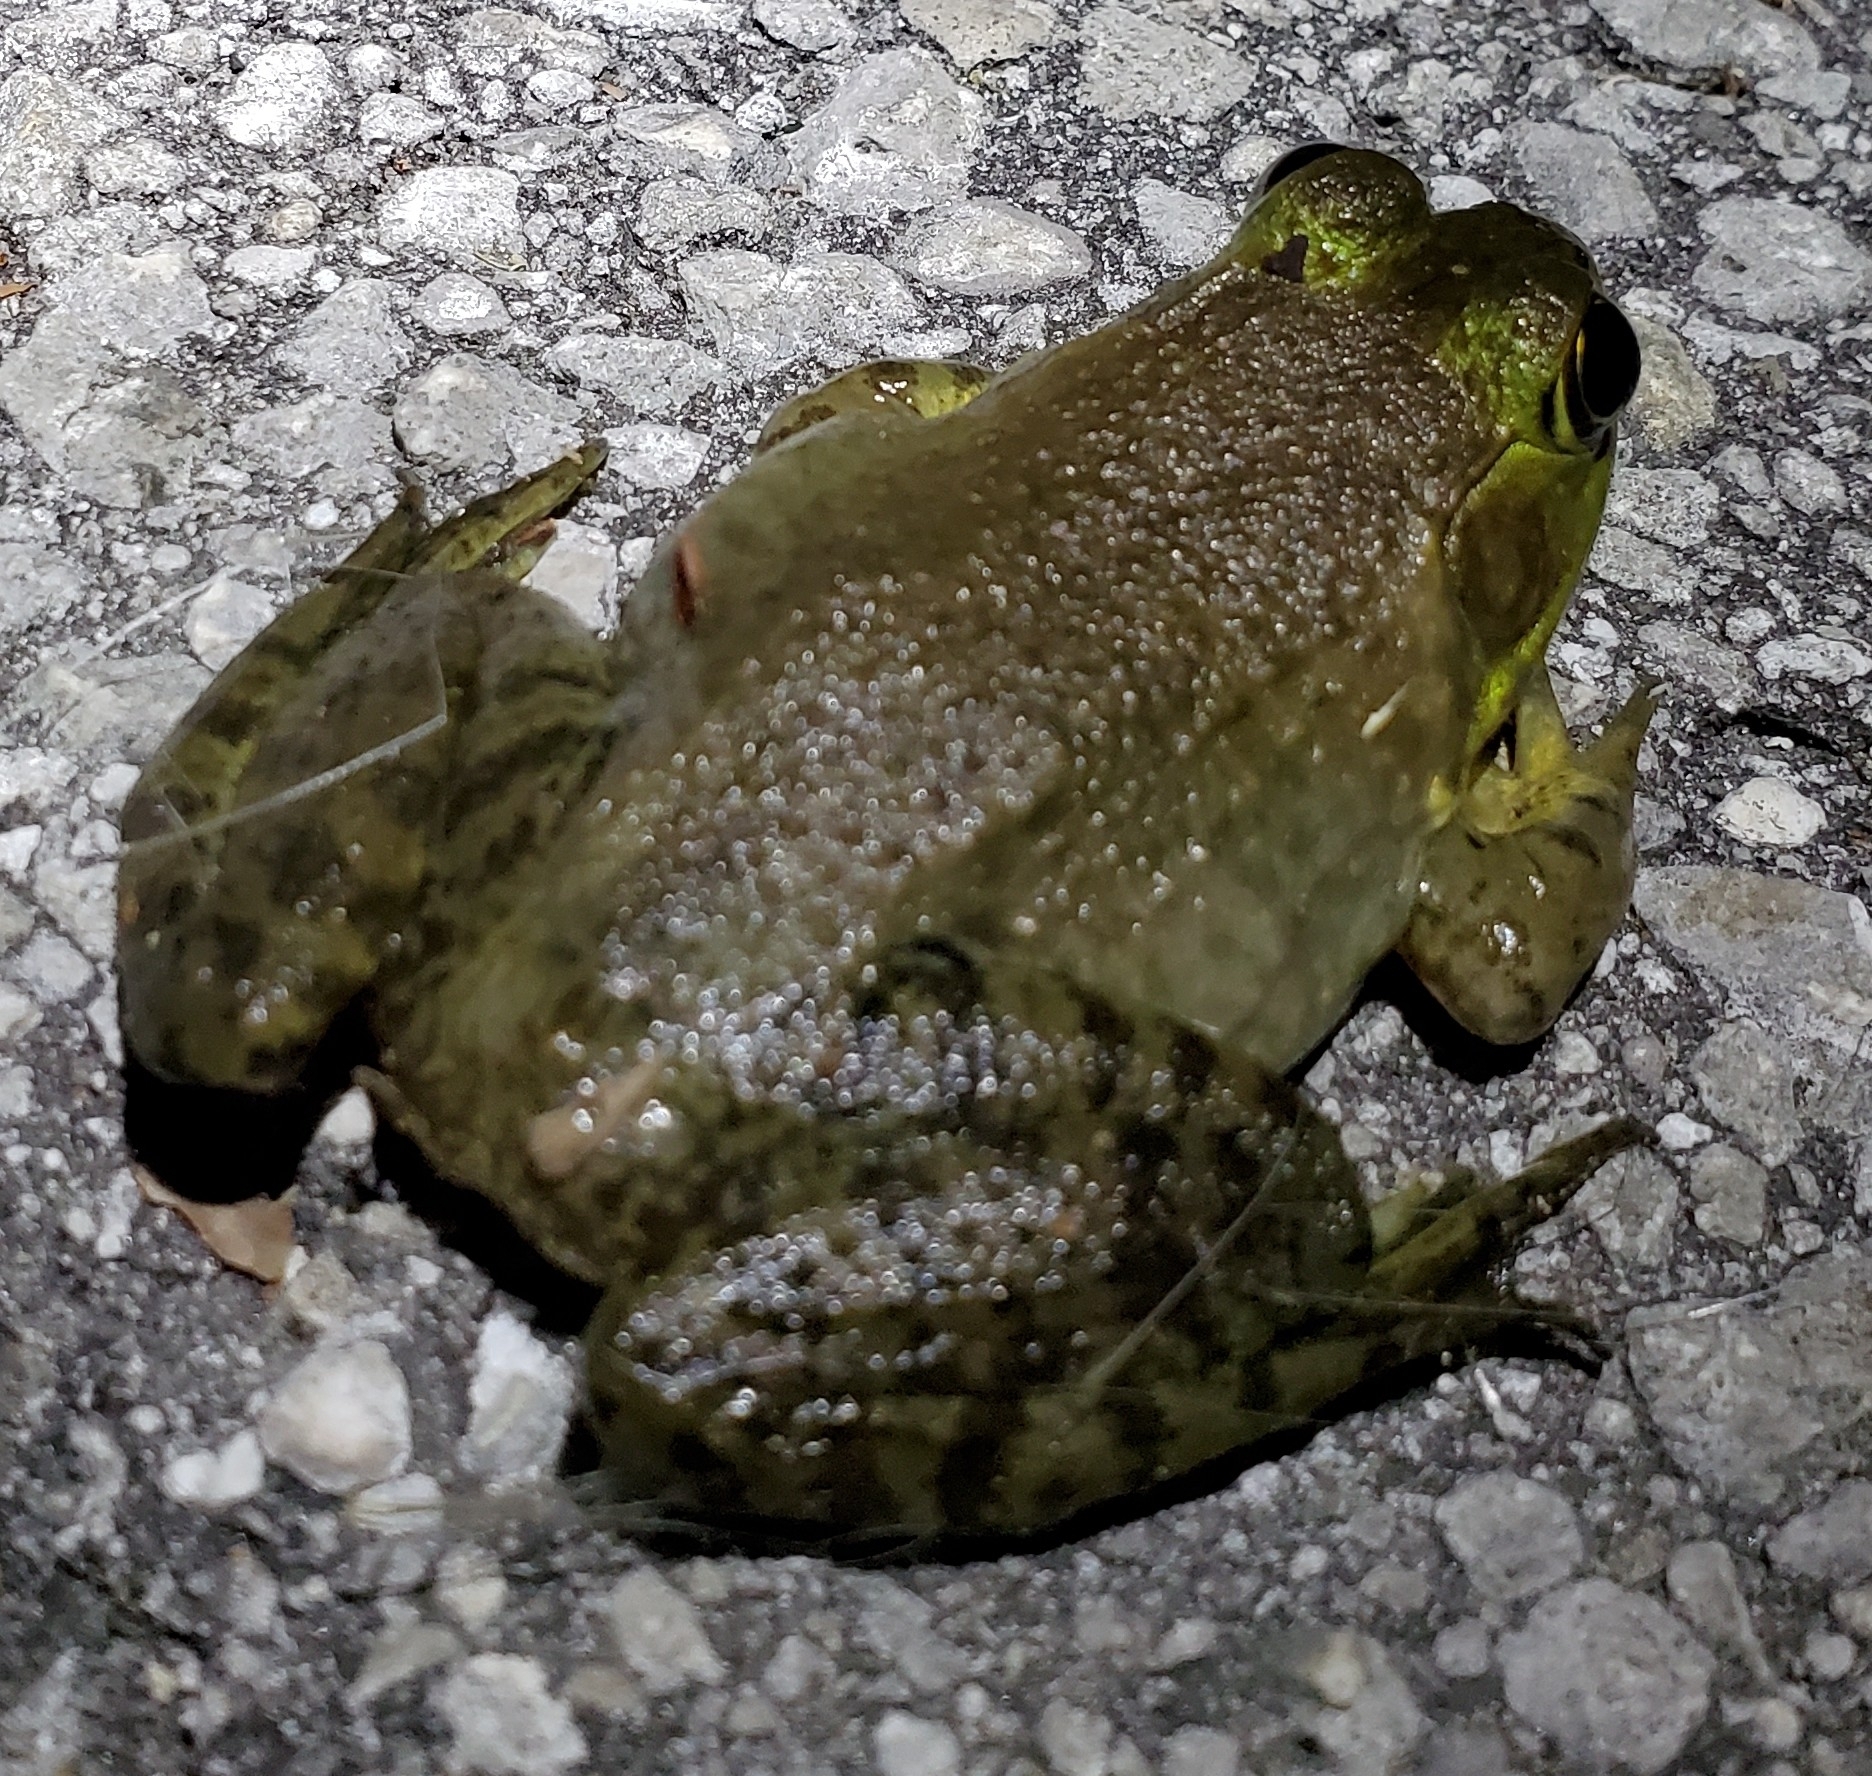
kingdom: Animalia
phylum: Chordata
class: Amphibia
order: Anura
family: Ranidae
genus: Lithobates
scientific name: Lithobates catesbeianus
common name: American bullfrog
